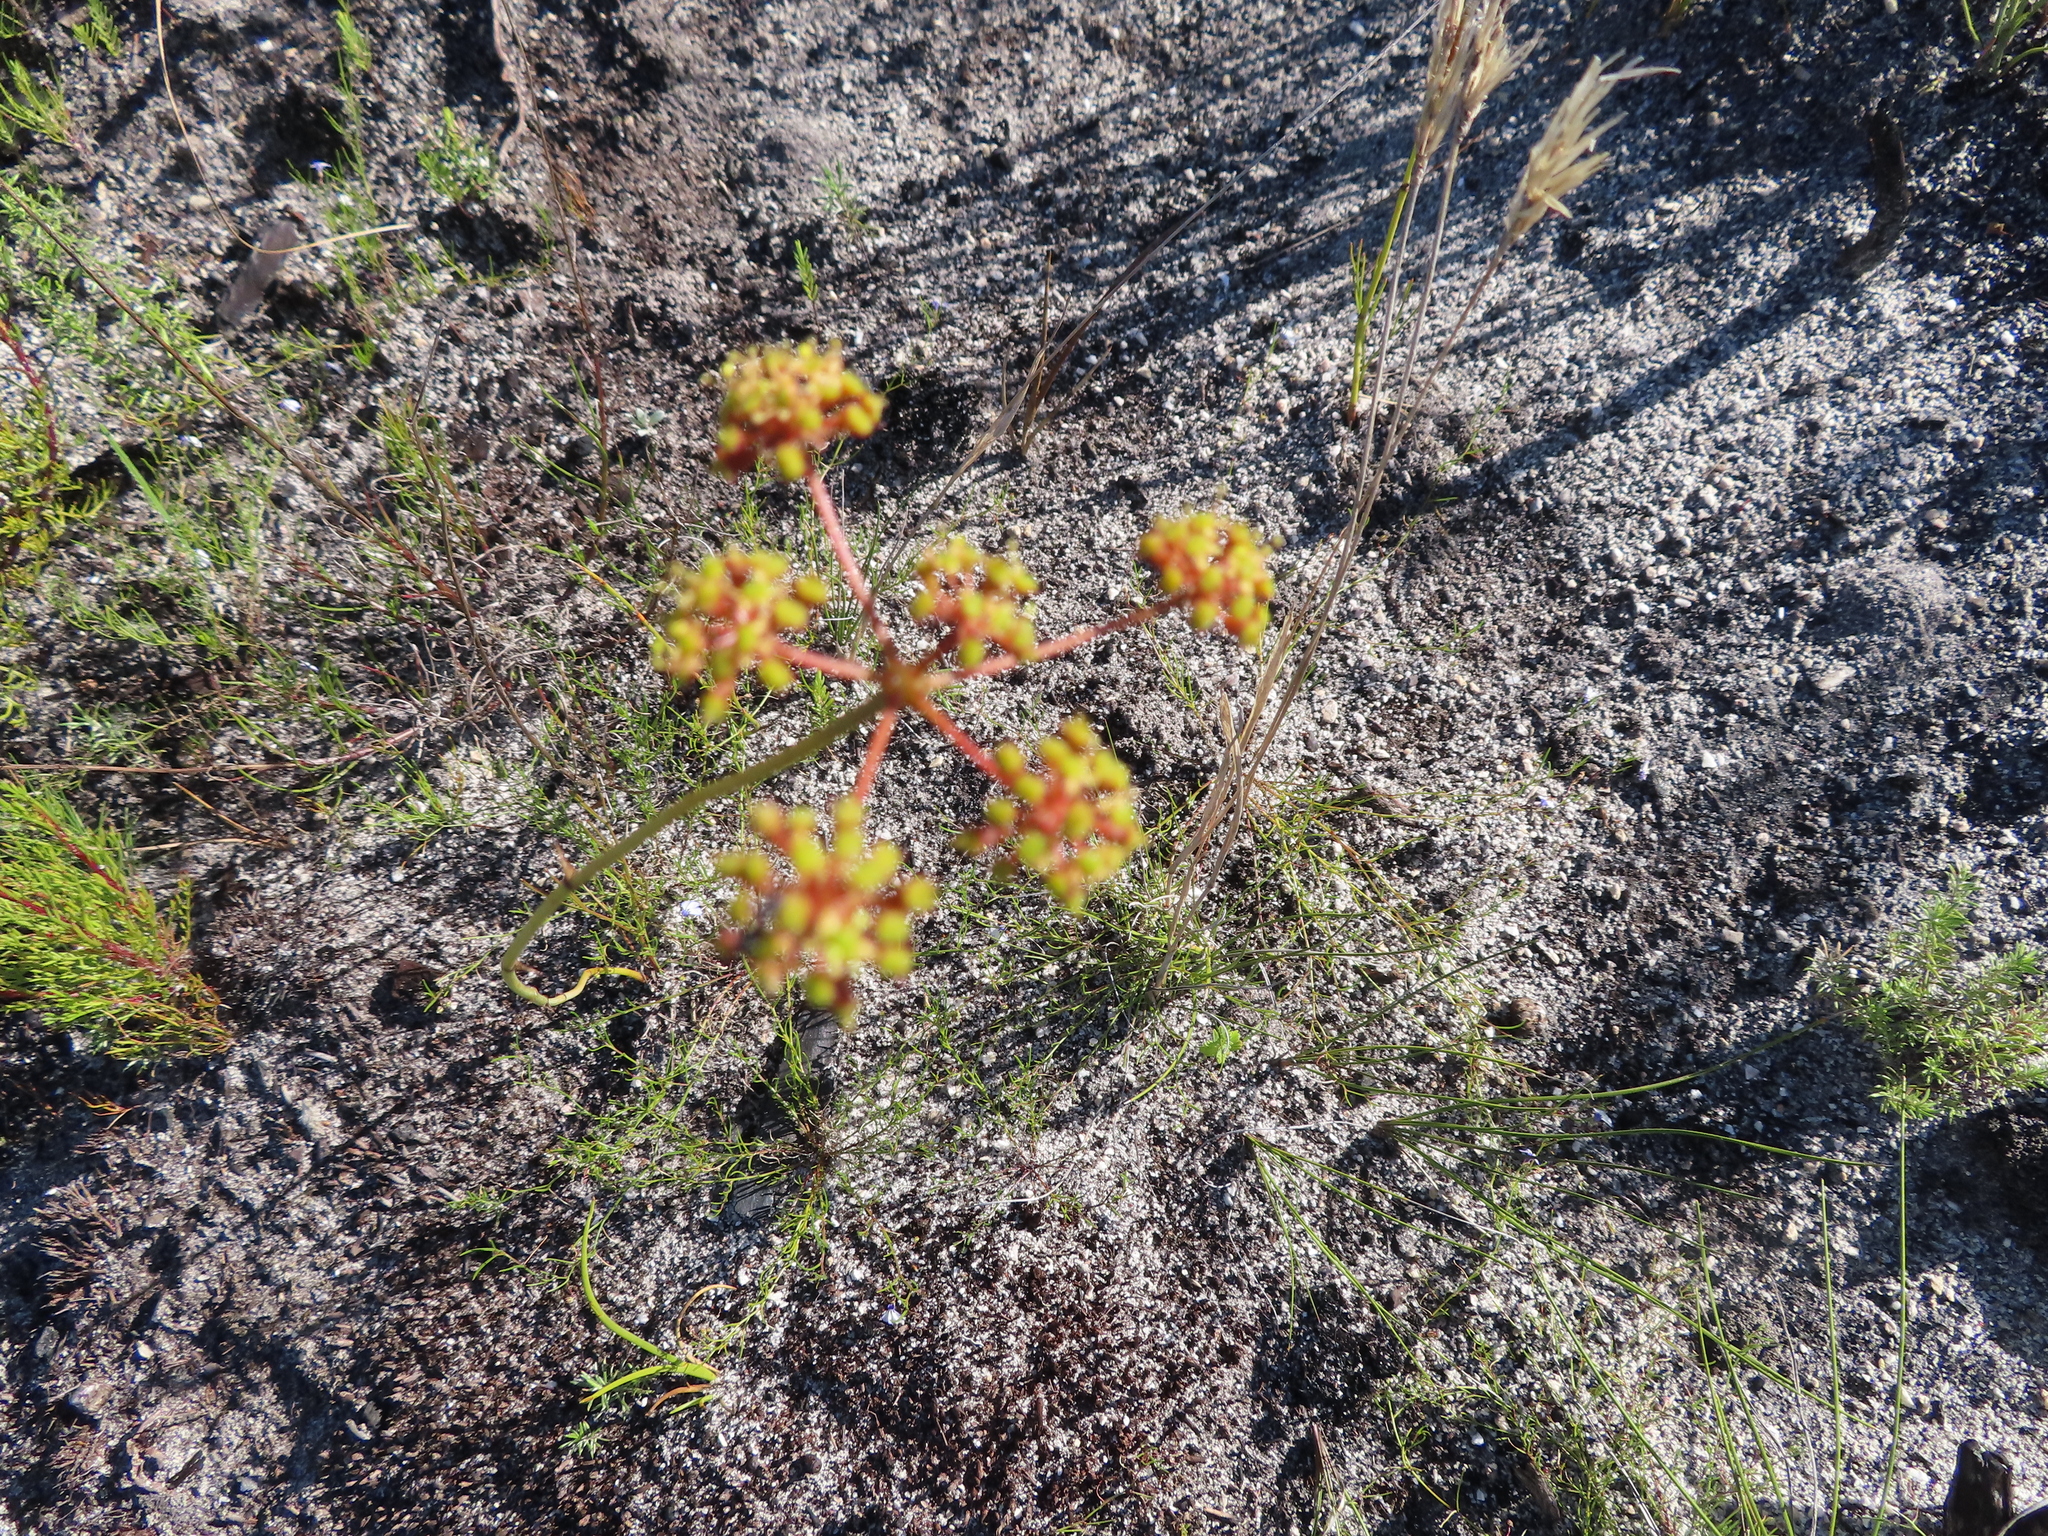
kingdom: Plantae
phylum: Tracheophyta
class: Magnoliopsida
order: Apiales
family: Apiaceae
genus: Annesorhiza
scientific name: Annesorhiza triternata
